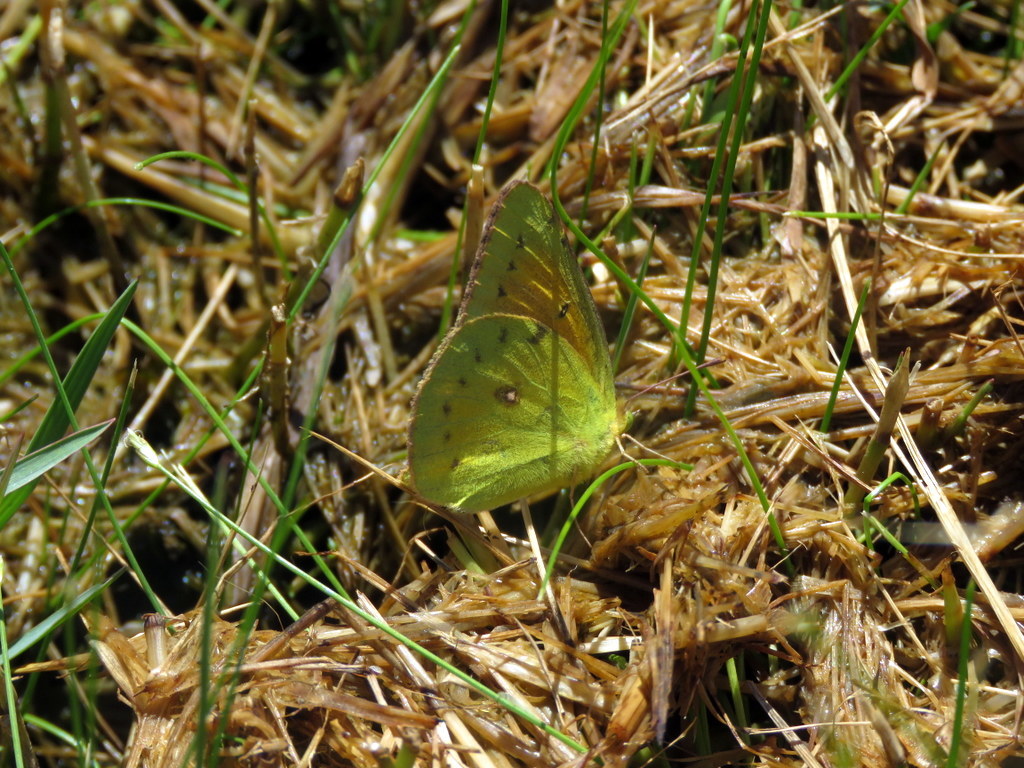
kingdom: Animalia
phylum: Arthropoda
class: Insecta
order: Lepidoptera
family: Pieridae
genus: Colias
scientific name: Colias lesbia
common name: Lesbia clouded yellow
